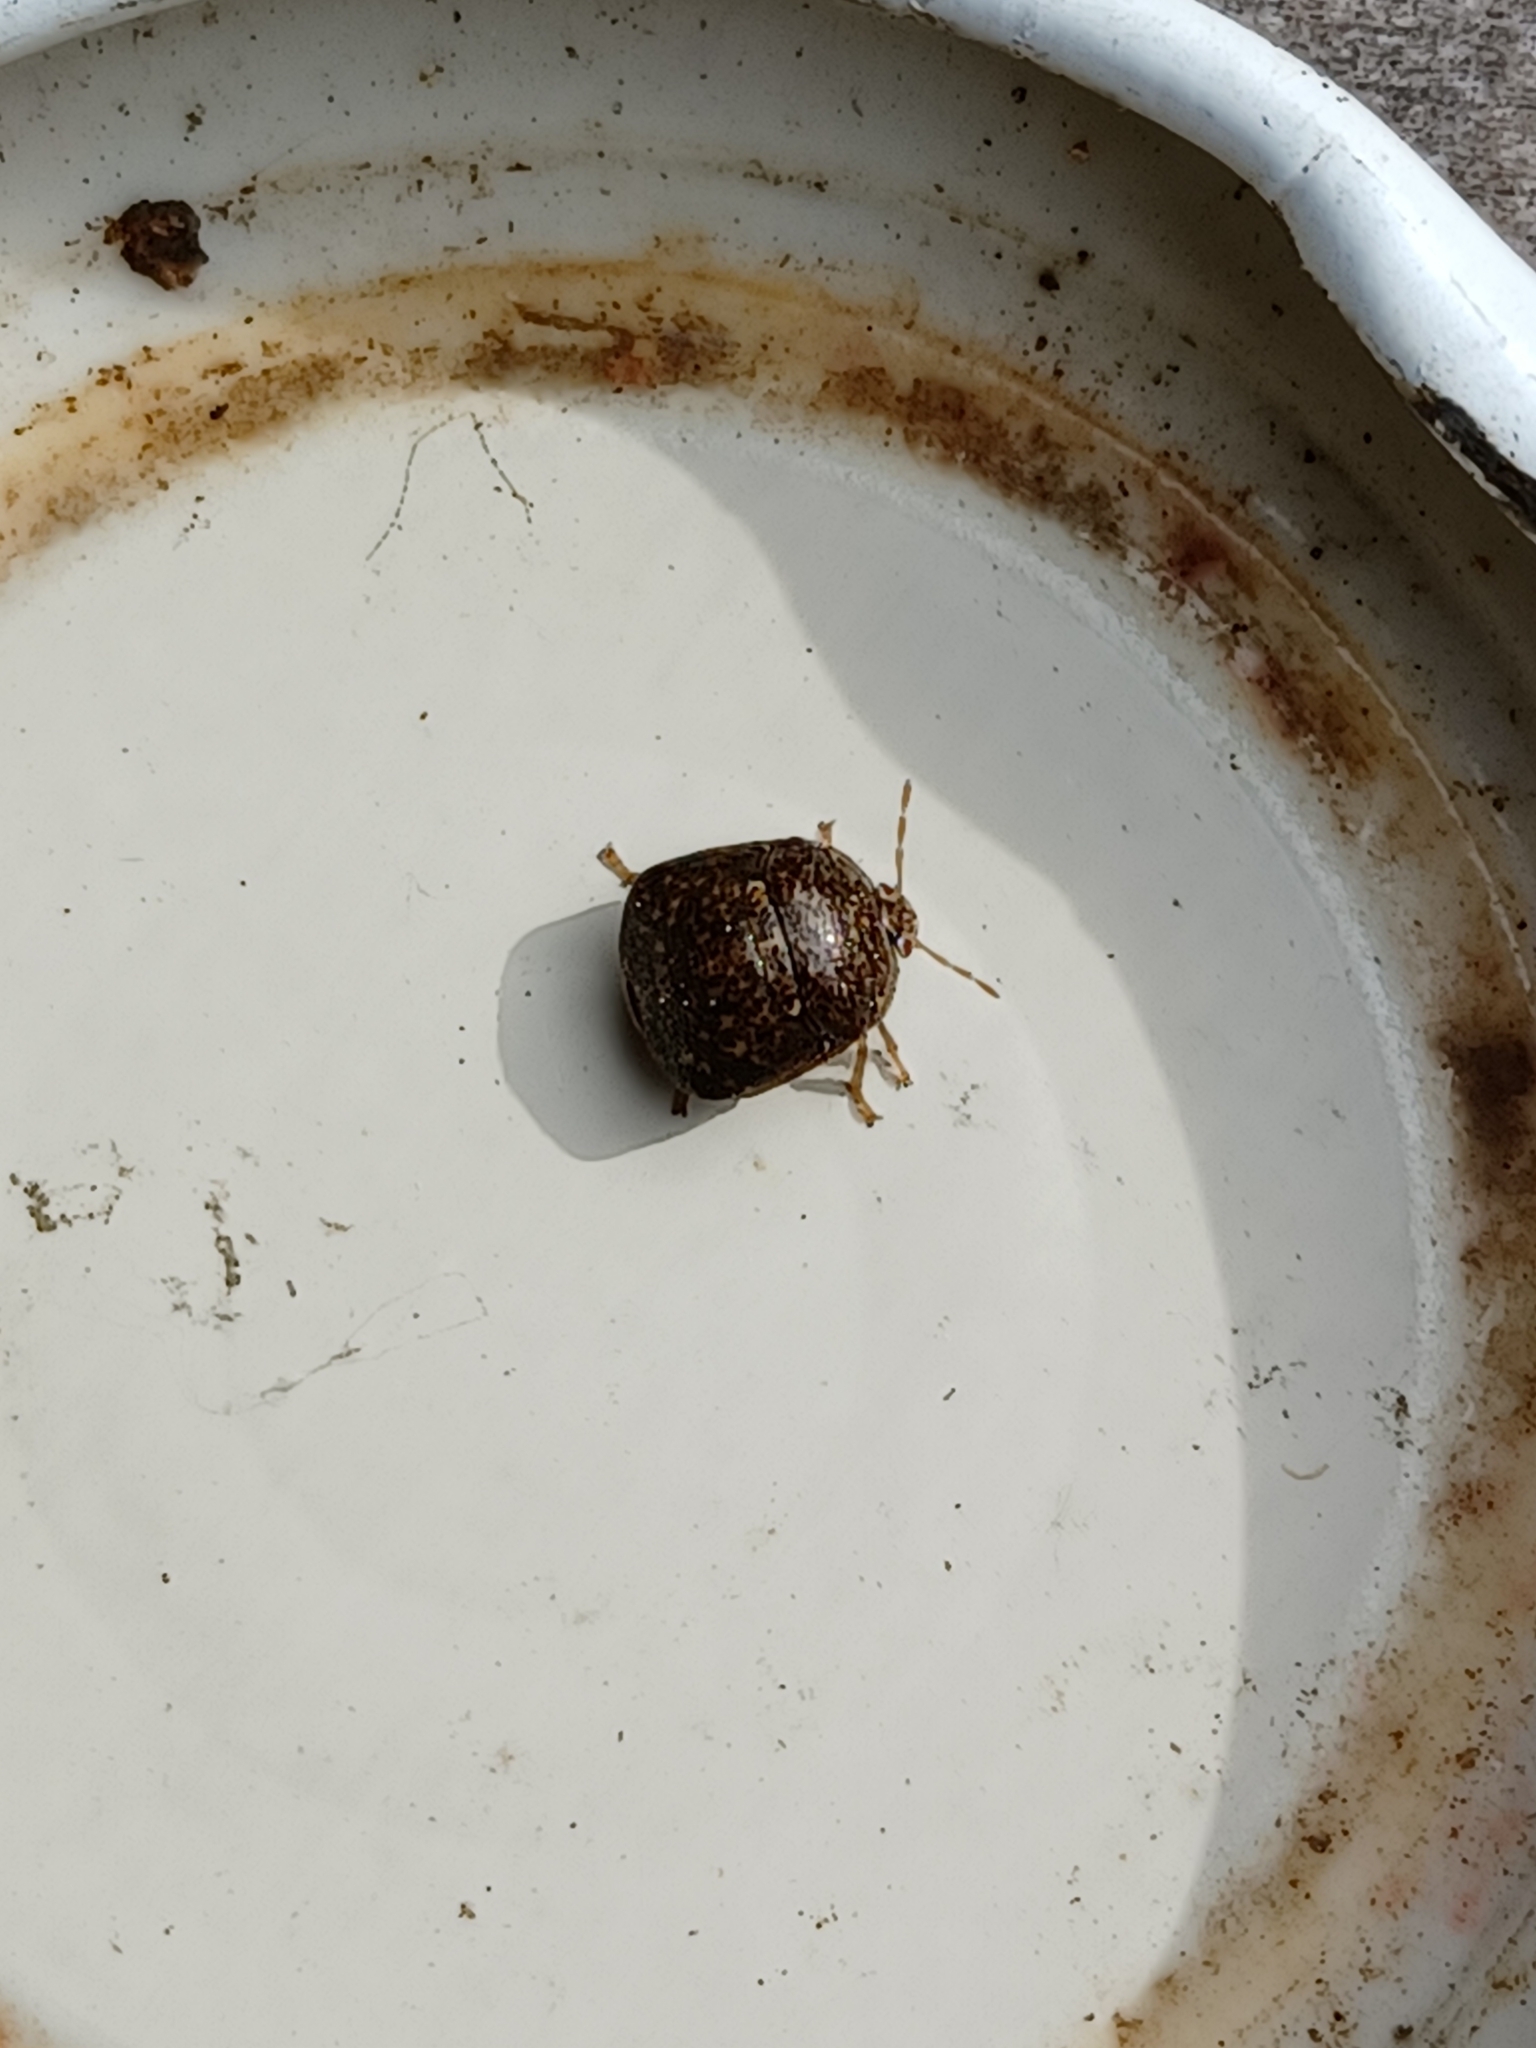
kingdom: Animalia
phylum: Arthropoda
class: Insecta
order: Hemiptera
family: Plataspidae
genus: Megacopta
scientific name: Megacopta cribraria
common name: Bean plataspid
